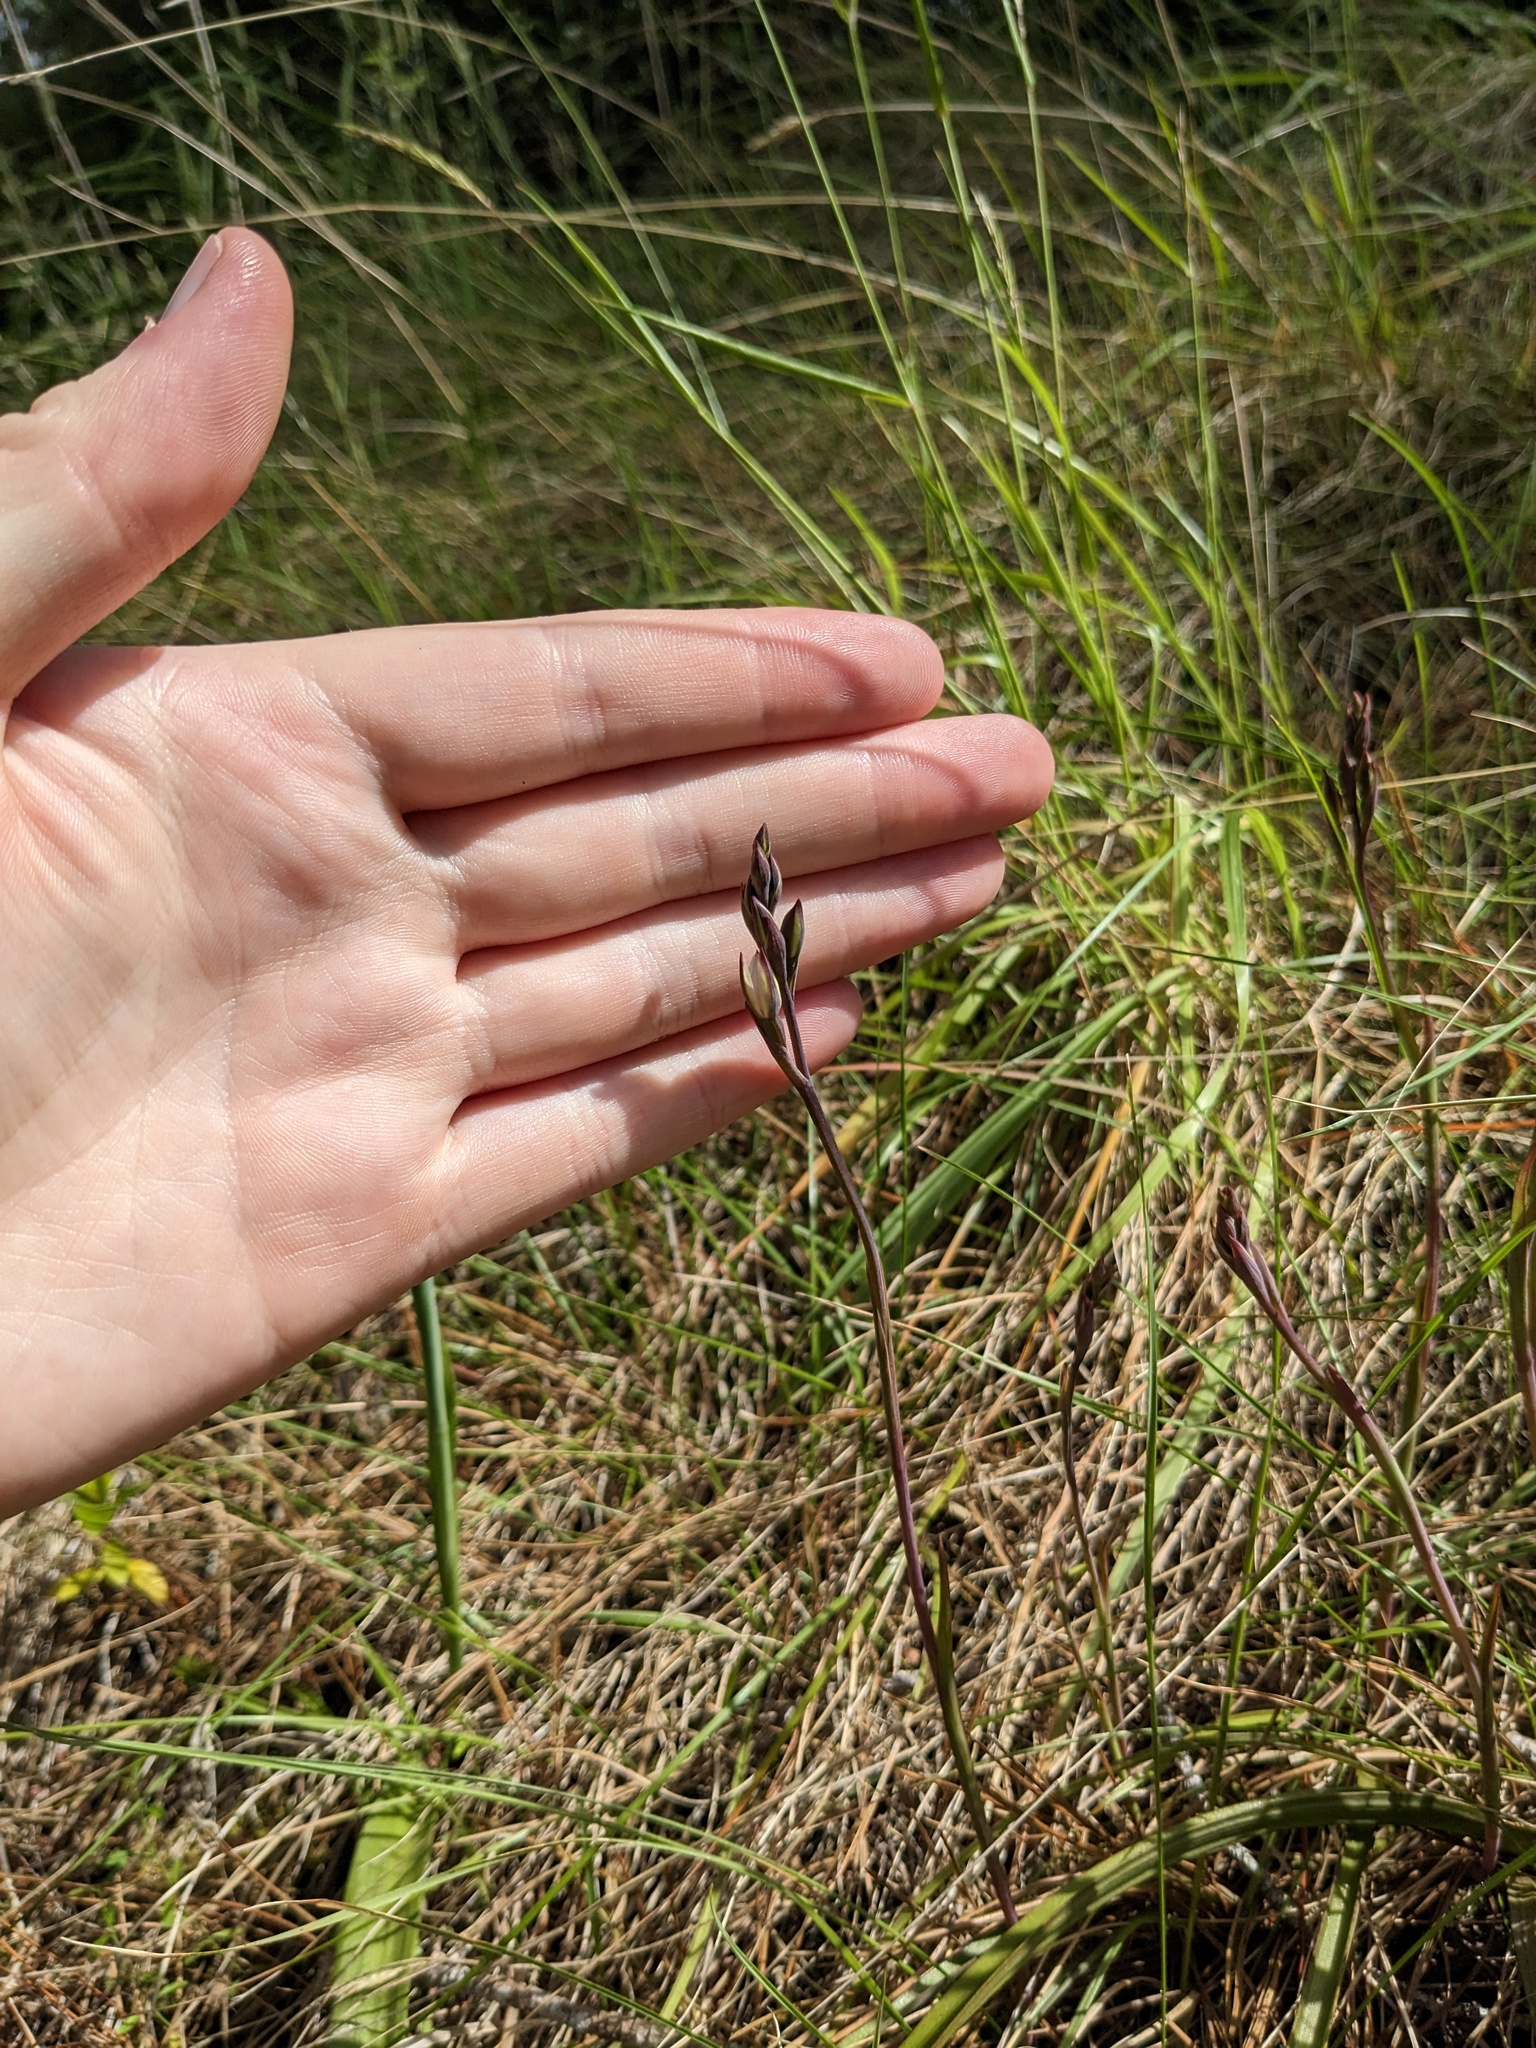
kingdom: Plantae
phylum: Tracheophyta
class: Liliopsida
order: Asparagales
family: Orchidaceae
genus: Thelymitra
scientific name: Thelymitra longifolia
